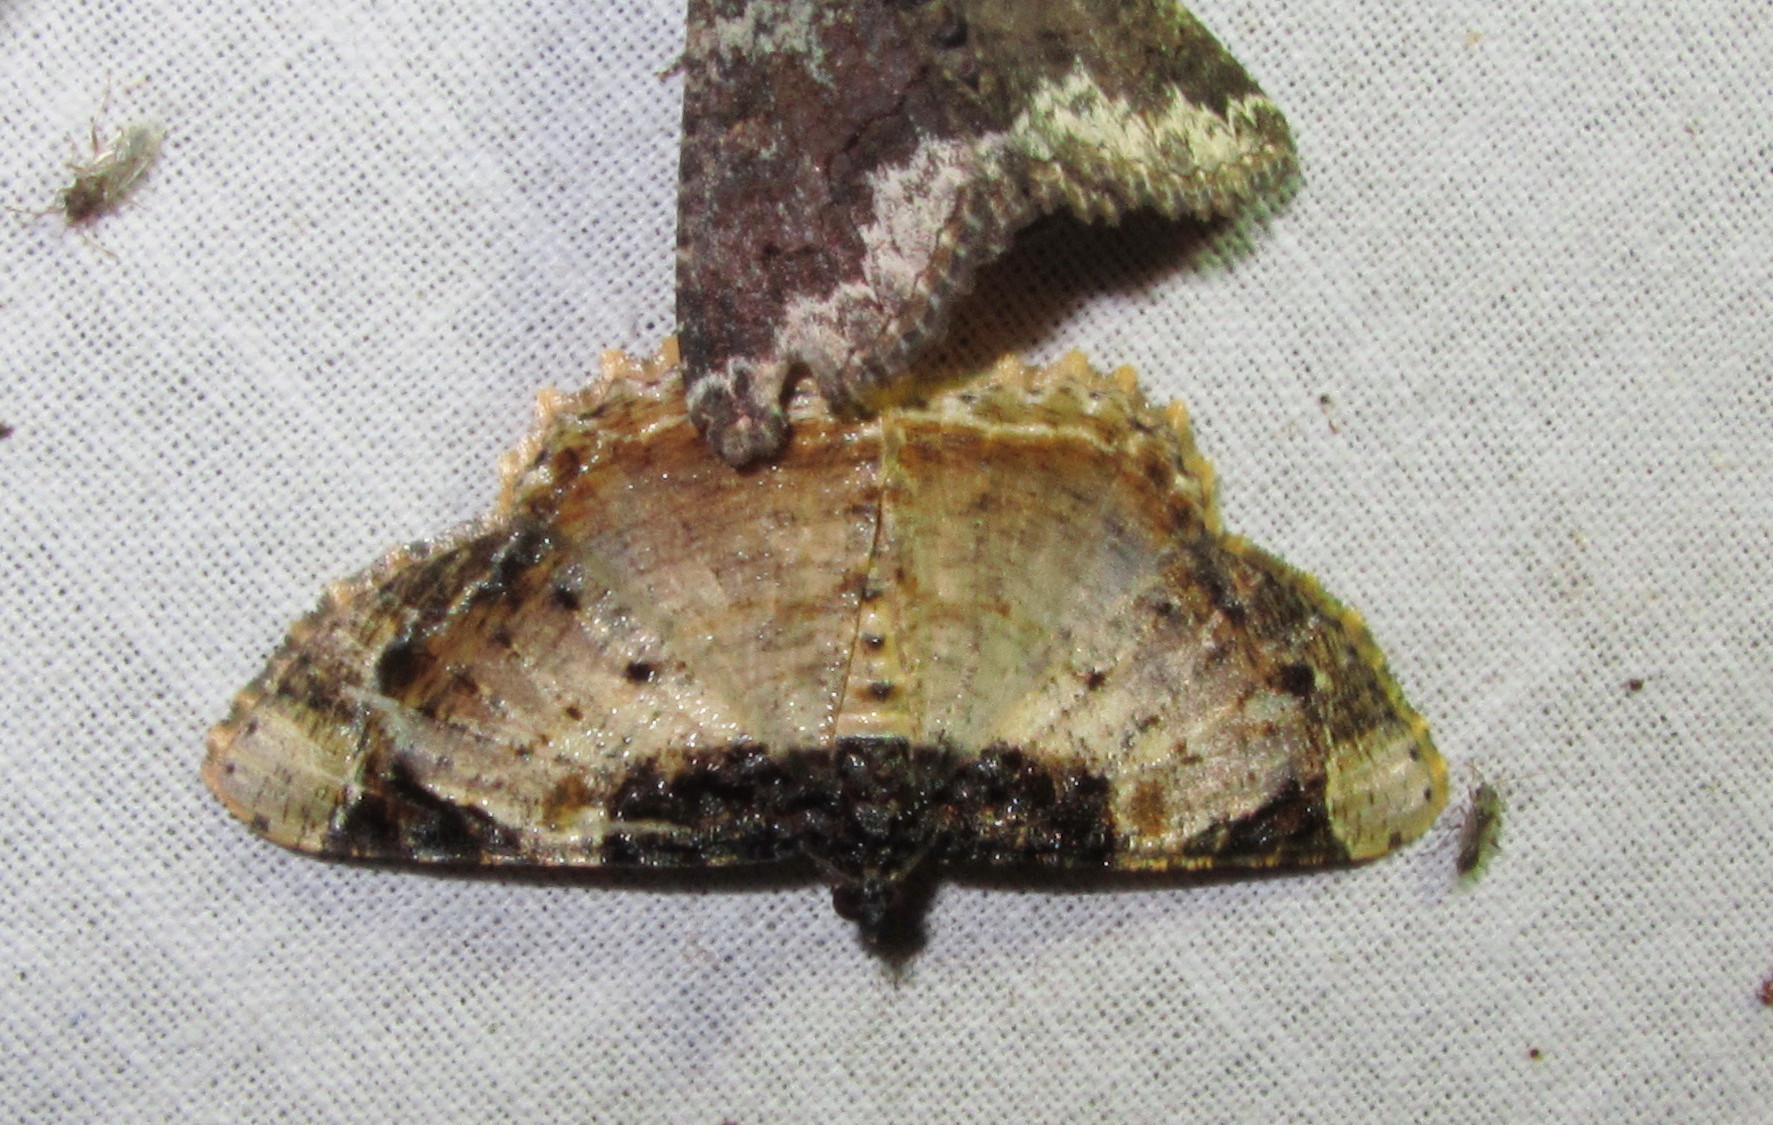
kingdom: Animalia
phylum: Arthropoda
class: Insecta
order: Lepidoptera
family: Geometridae
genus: Cassephyra
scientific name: Cassephyra lamprosticta
